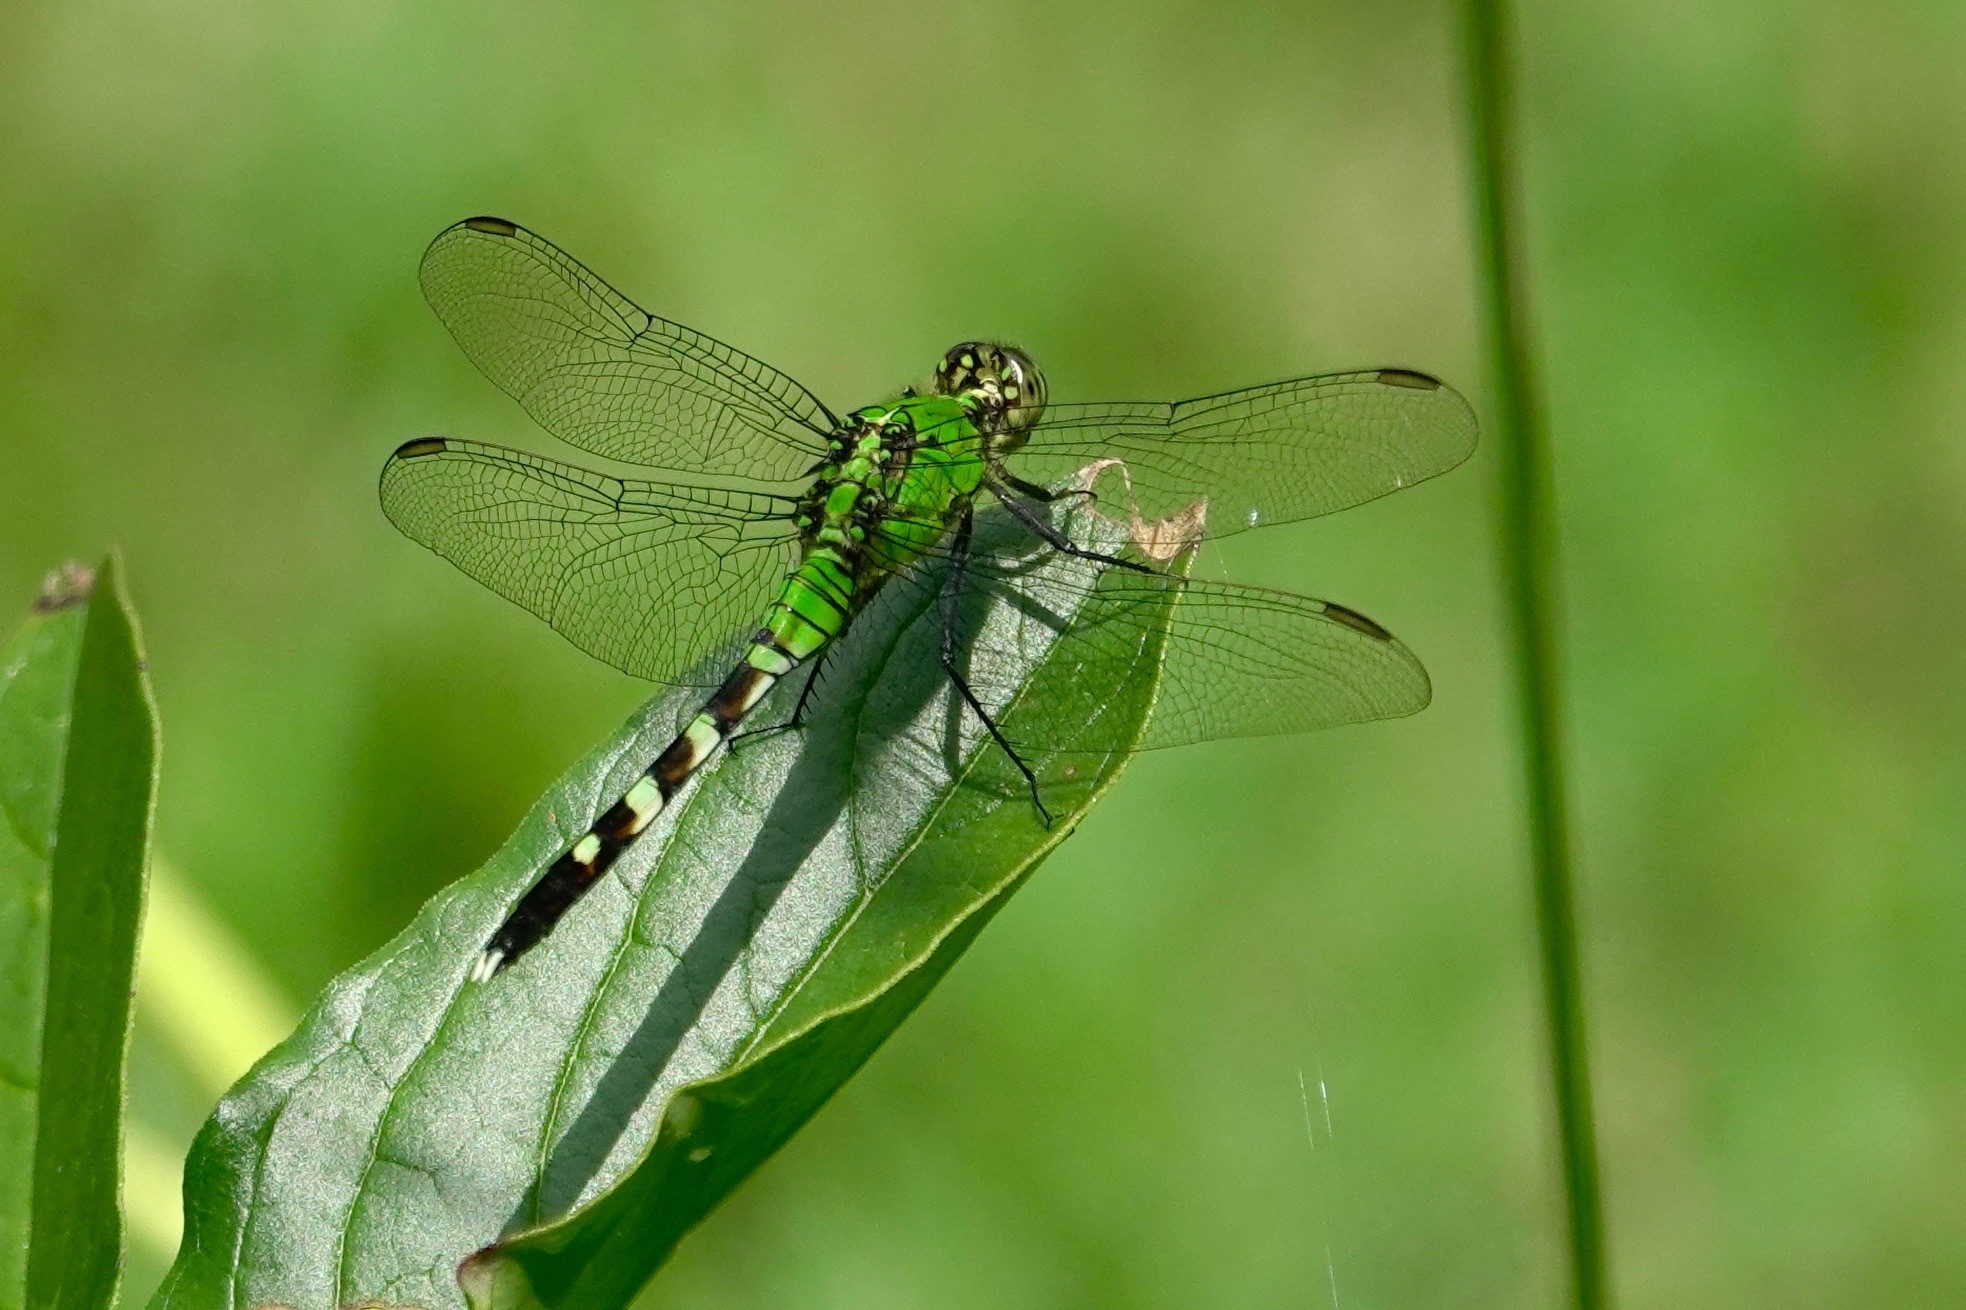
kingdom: Animalia
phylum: Arthropoda
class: Insecta
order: Odonata
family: Libellulidae
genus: Erythemis
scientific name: Erythemis simplicicollis
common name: Eastern pondhawk
